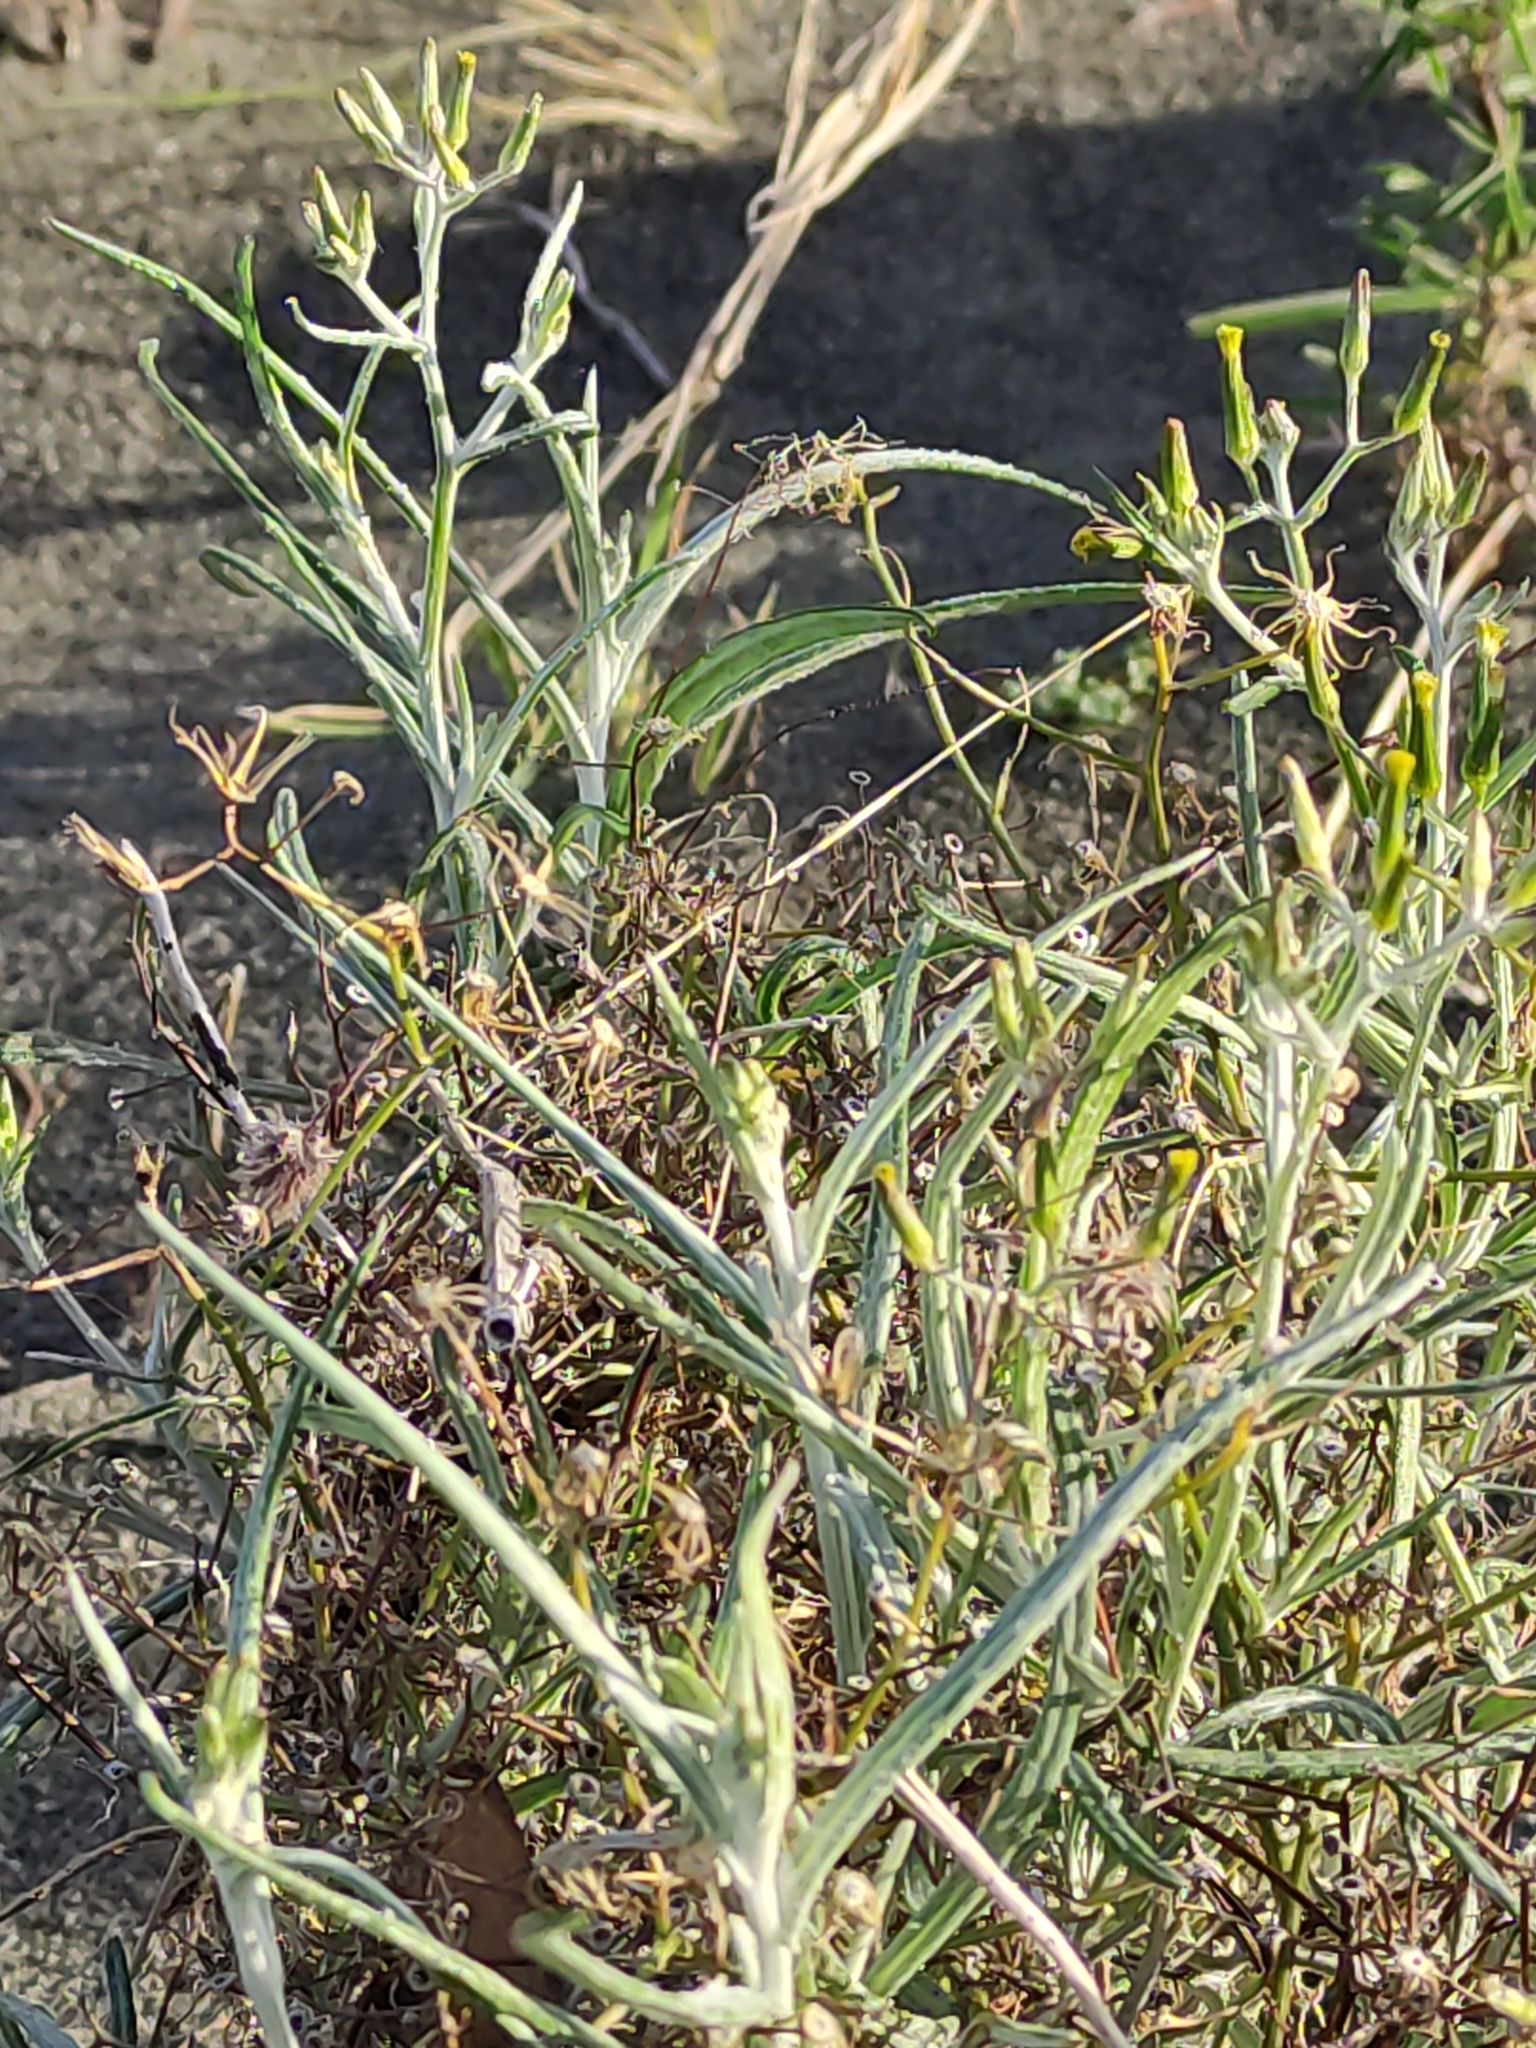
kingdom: Plantae
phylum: Tracheophyta
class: Magnoliopsida
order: Asterales
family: Asteraceae
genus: Senecio
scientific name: Senecio quadridentatus
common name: Cotton fireweed
